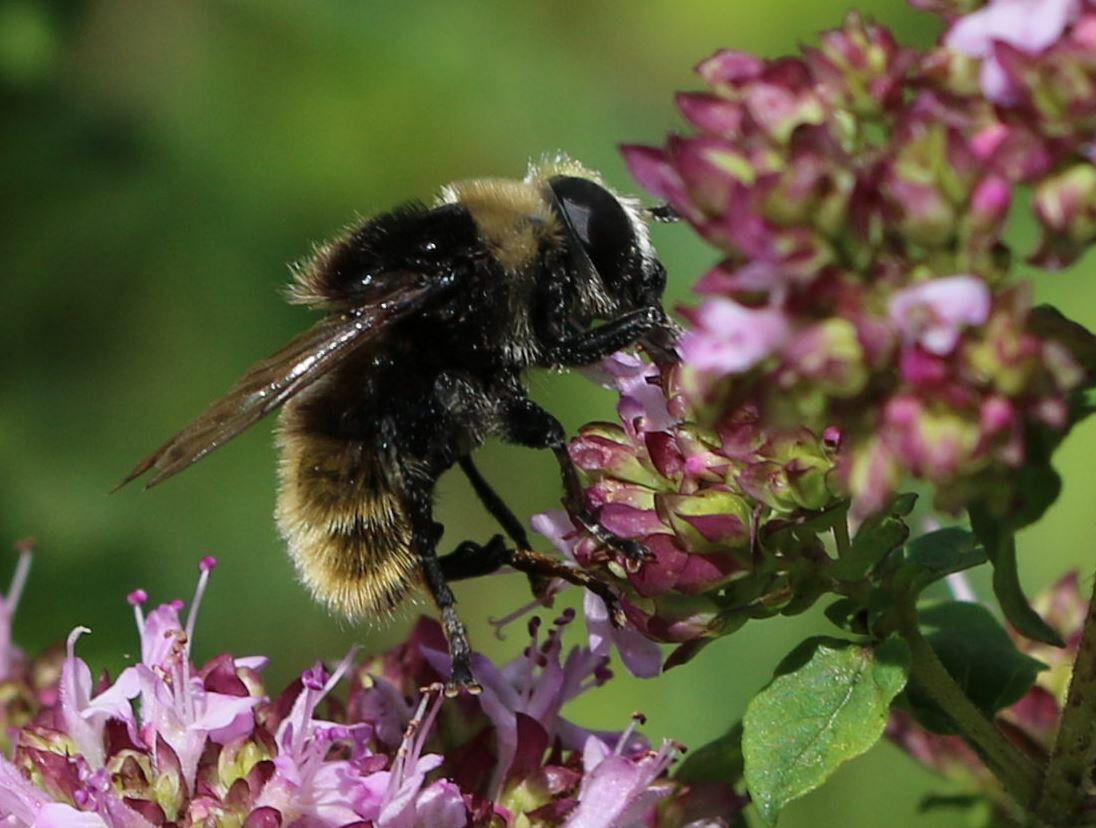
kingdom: Animalia
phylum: Arthropoda
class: Insecta
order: Diptera
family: Syrphidae
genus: Merodon
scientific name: Merodon equestris
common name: Greater bulb-fly
